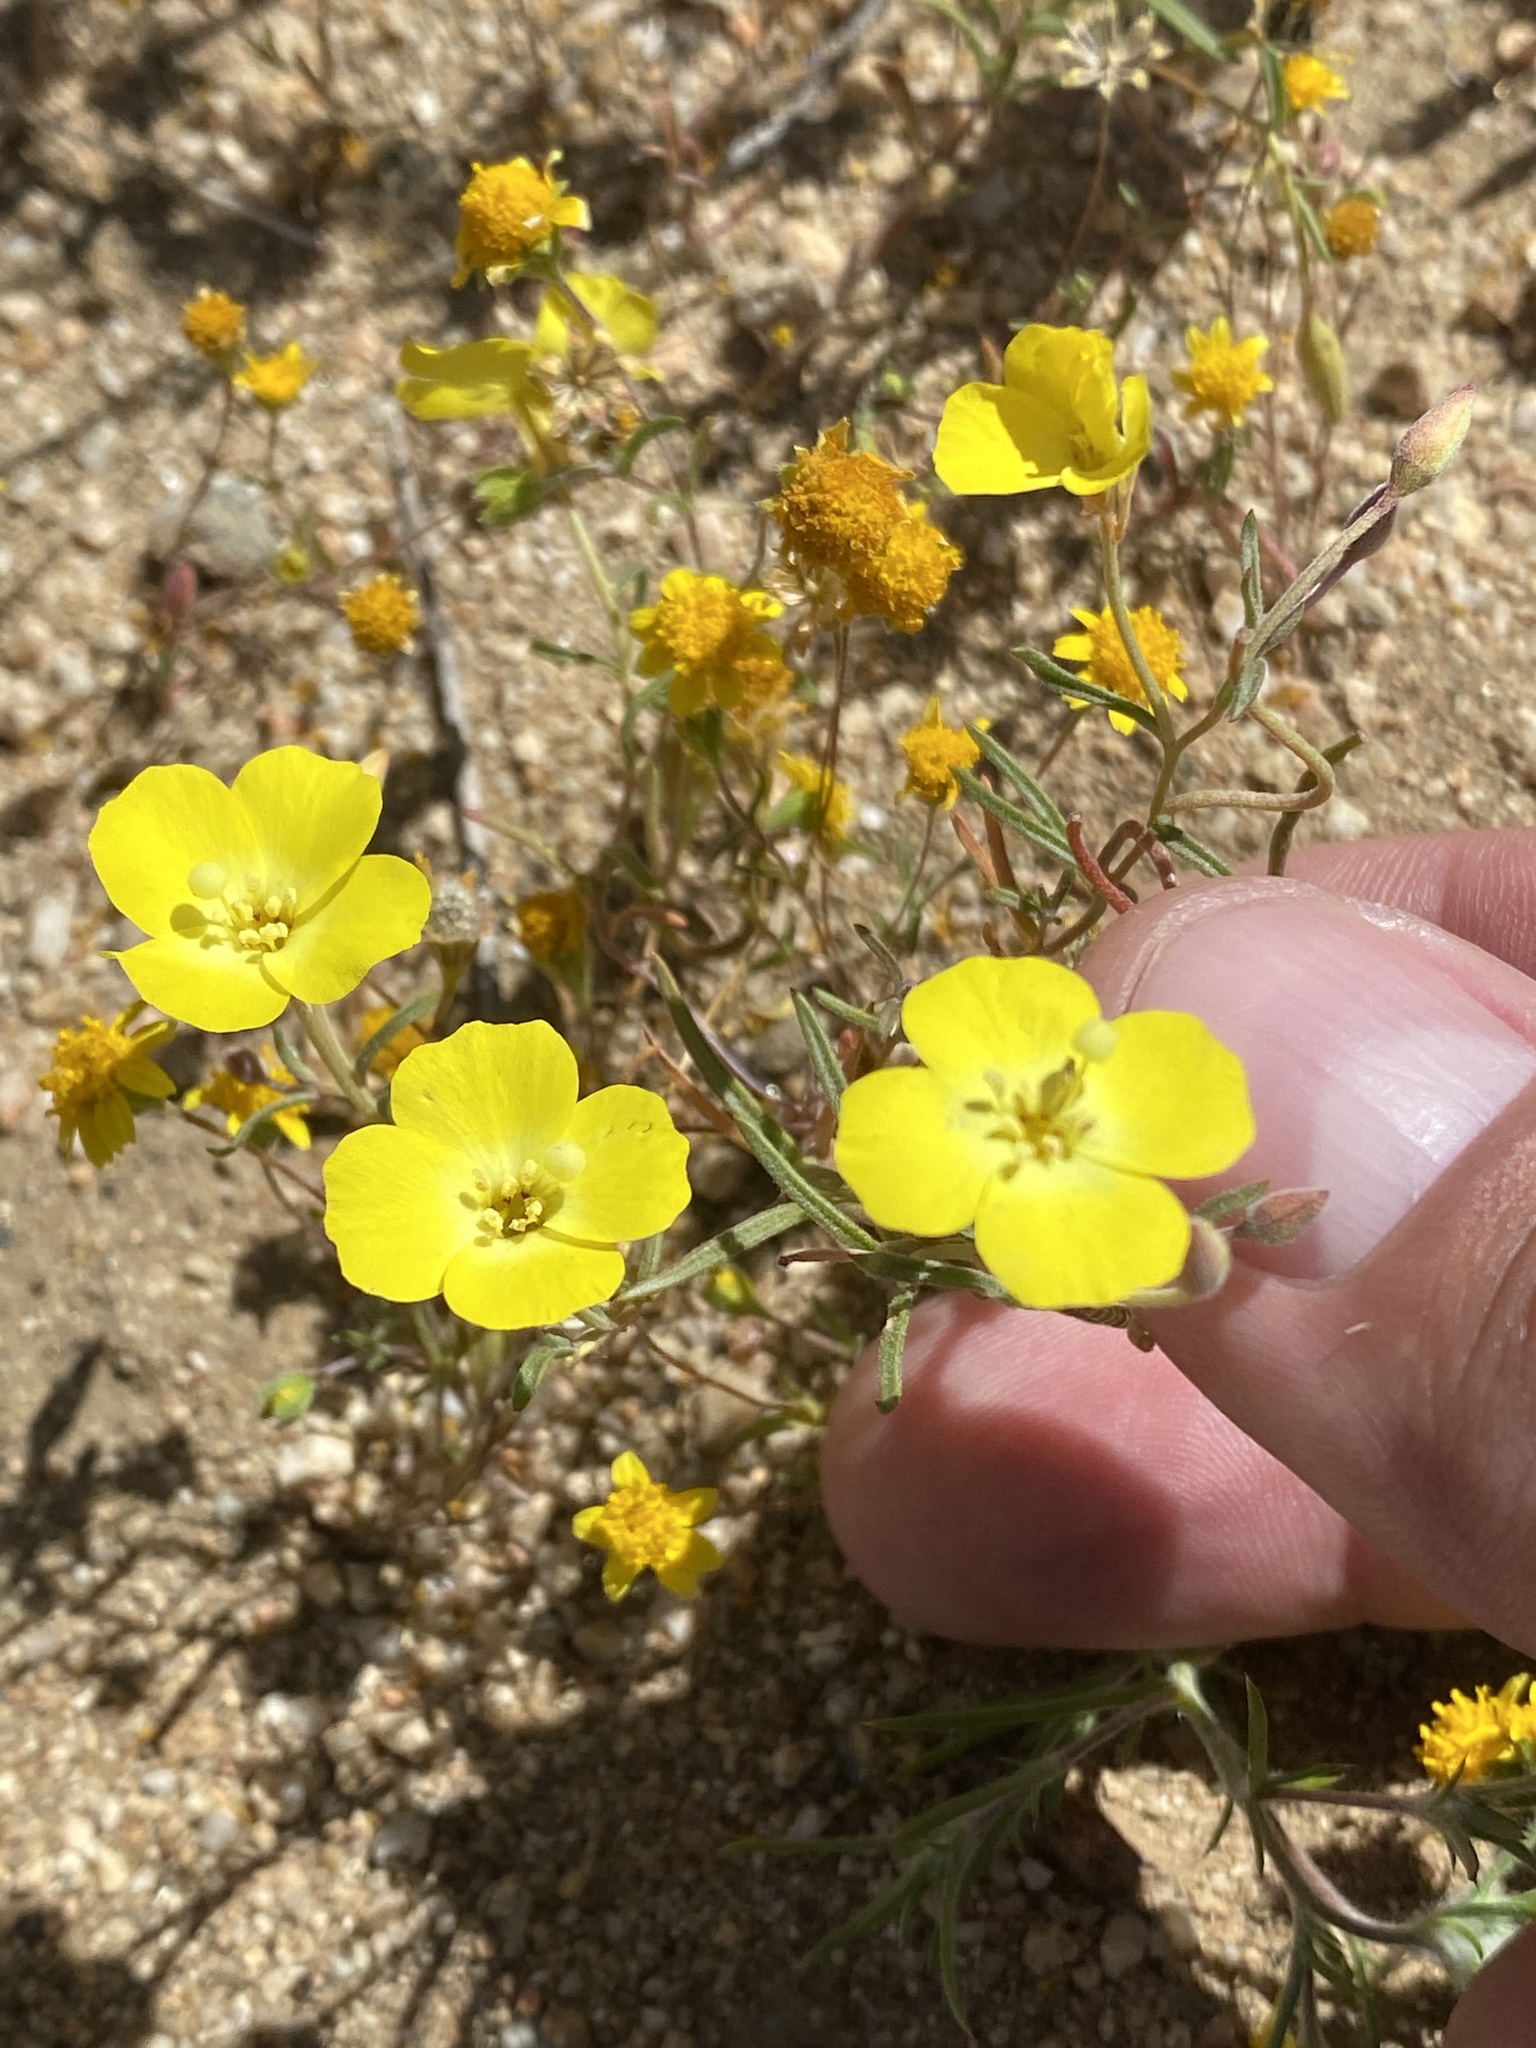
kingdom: Plantae
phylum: Tracheophyta
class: Magnoliopsida
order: Myrtales
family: Onagraceae
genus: Camissonia
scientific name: Camissonia campestris
